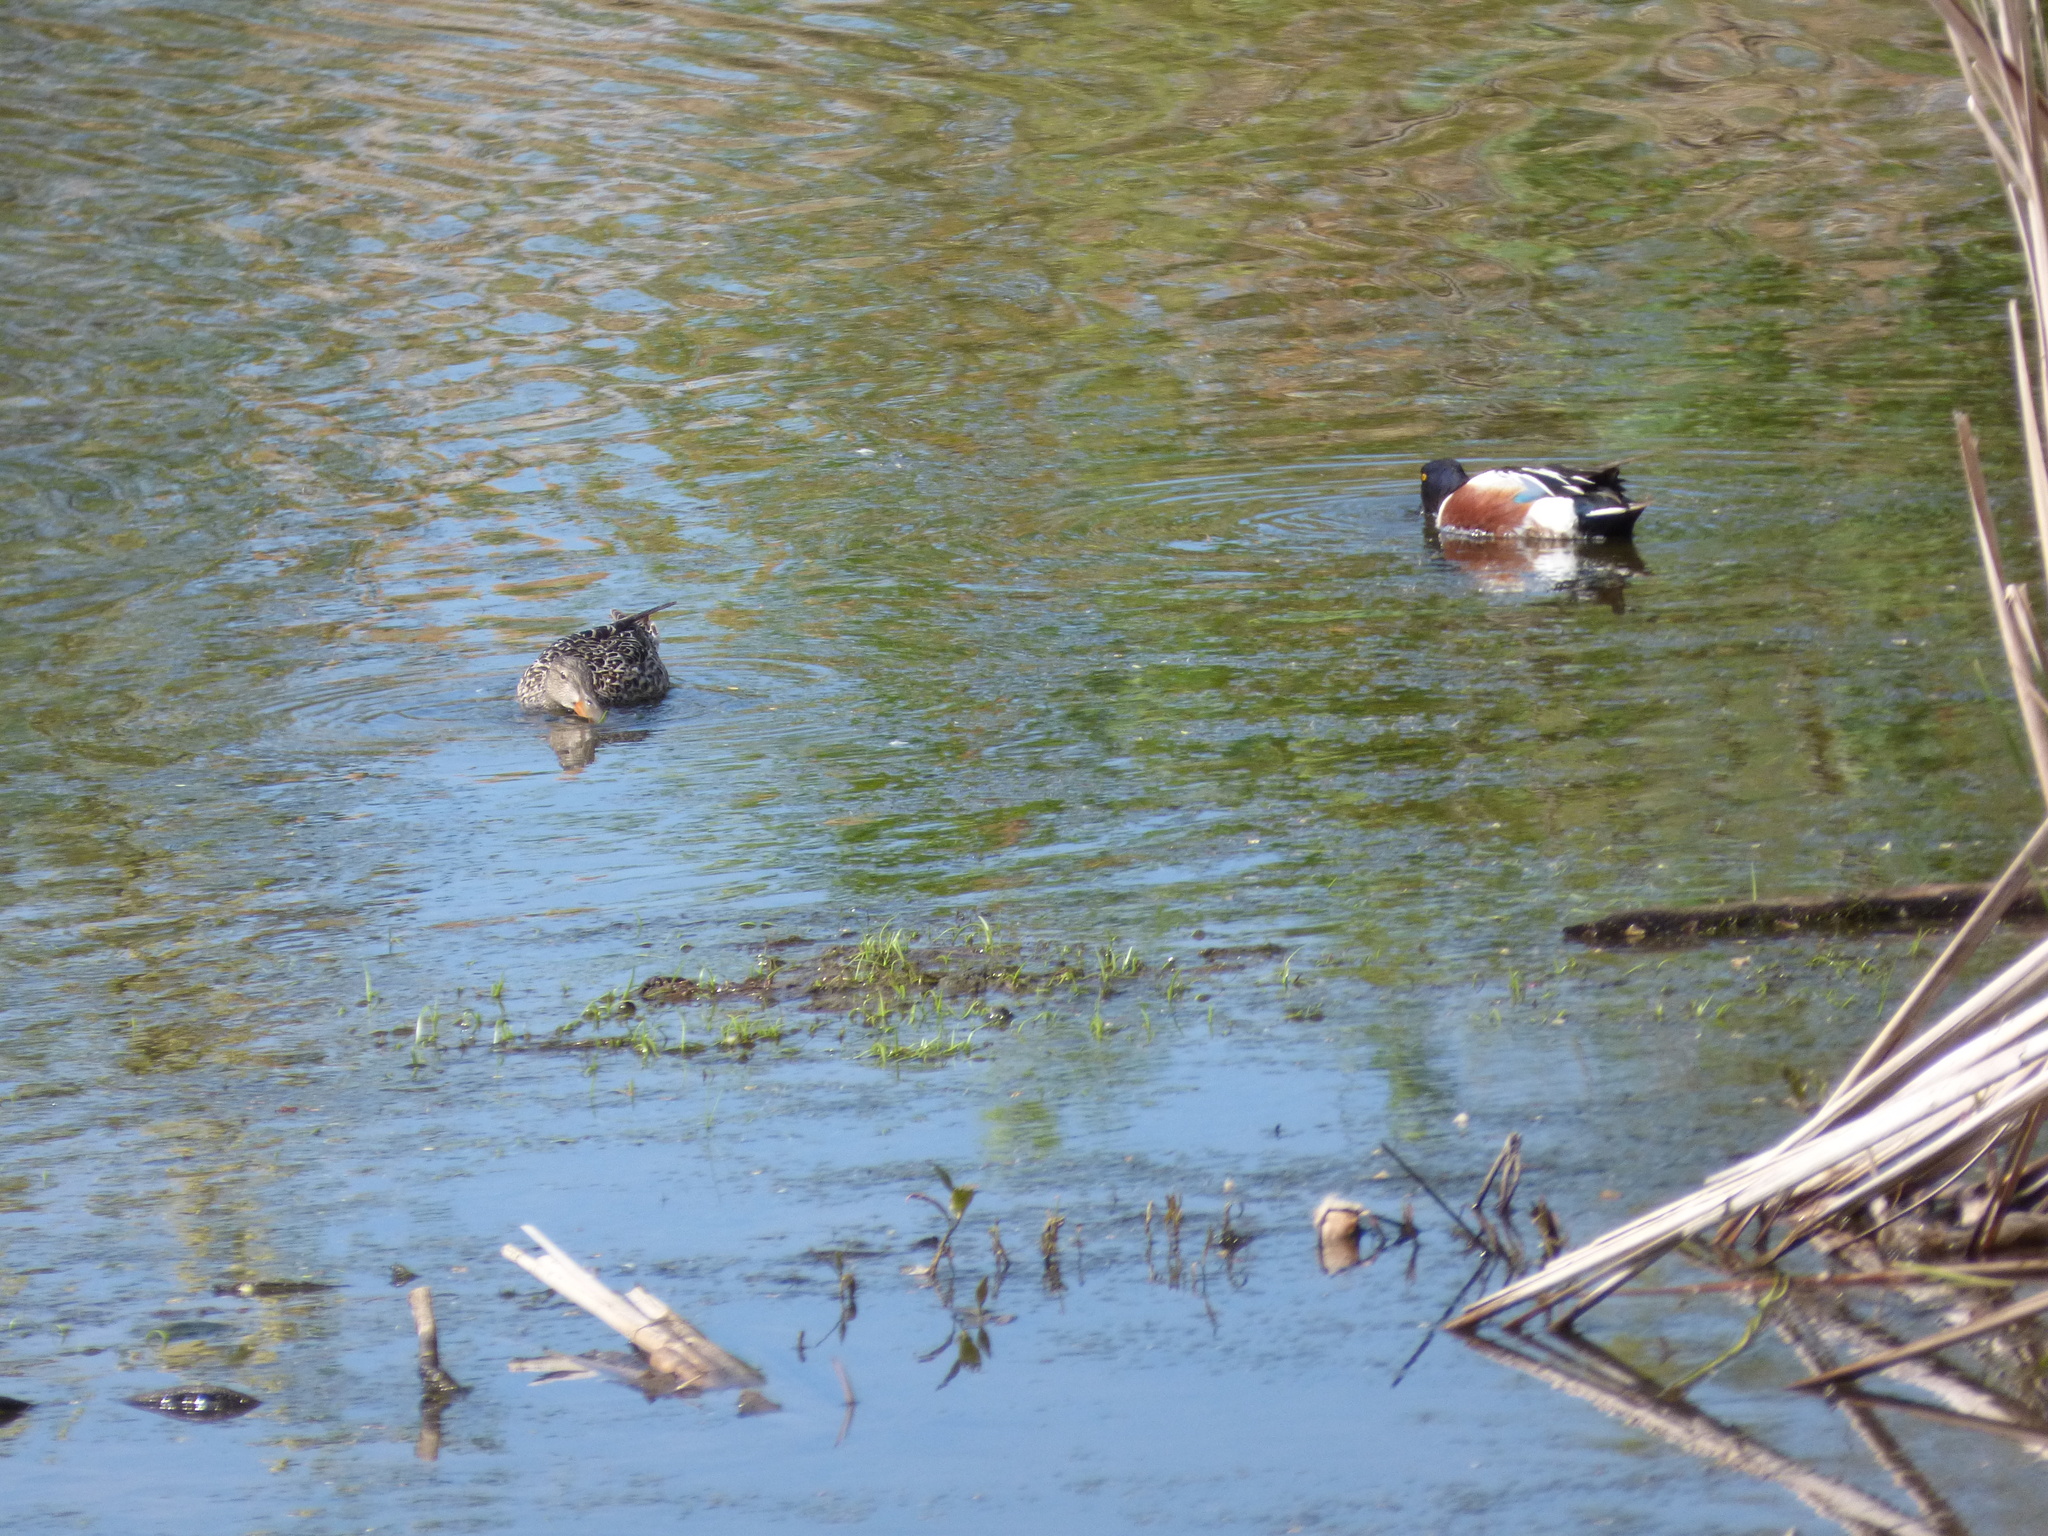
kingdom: Animalia
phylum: Chordata
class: Aves
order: Anseriformes
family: Anatidae
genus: Spatula
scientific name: Spatula clypeata
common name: Northern shoveler
